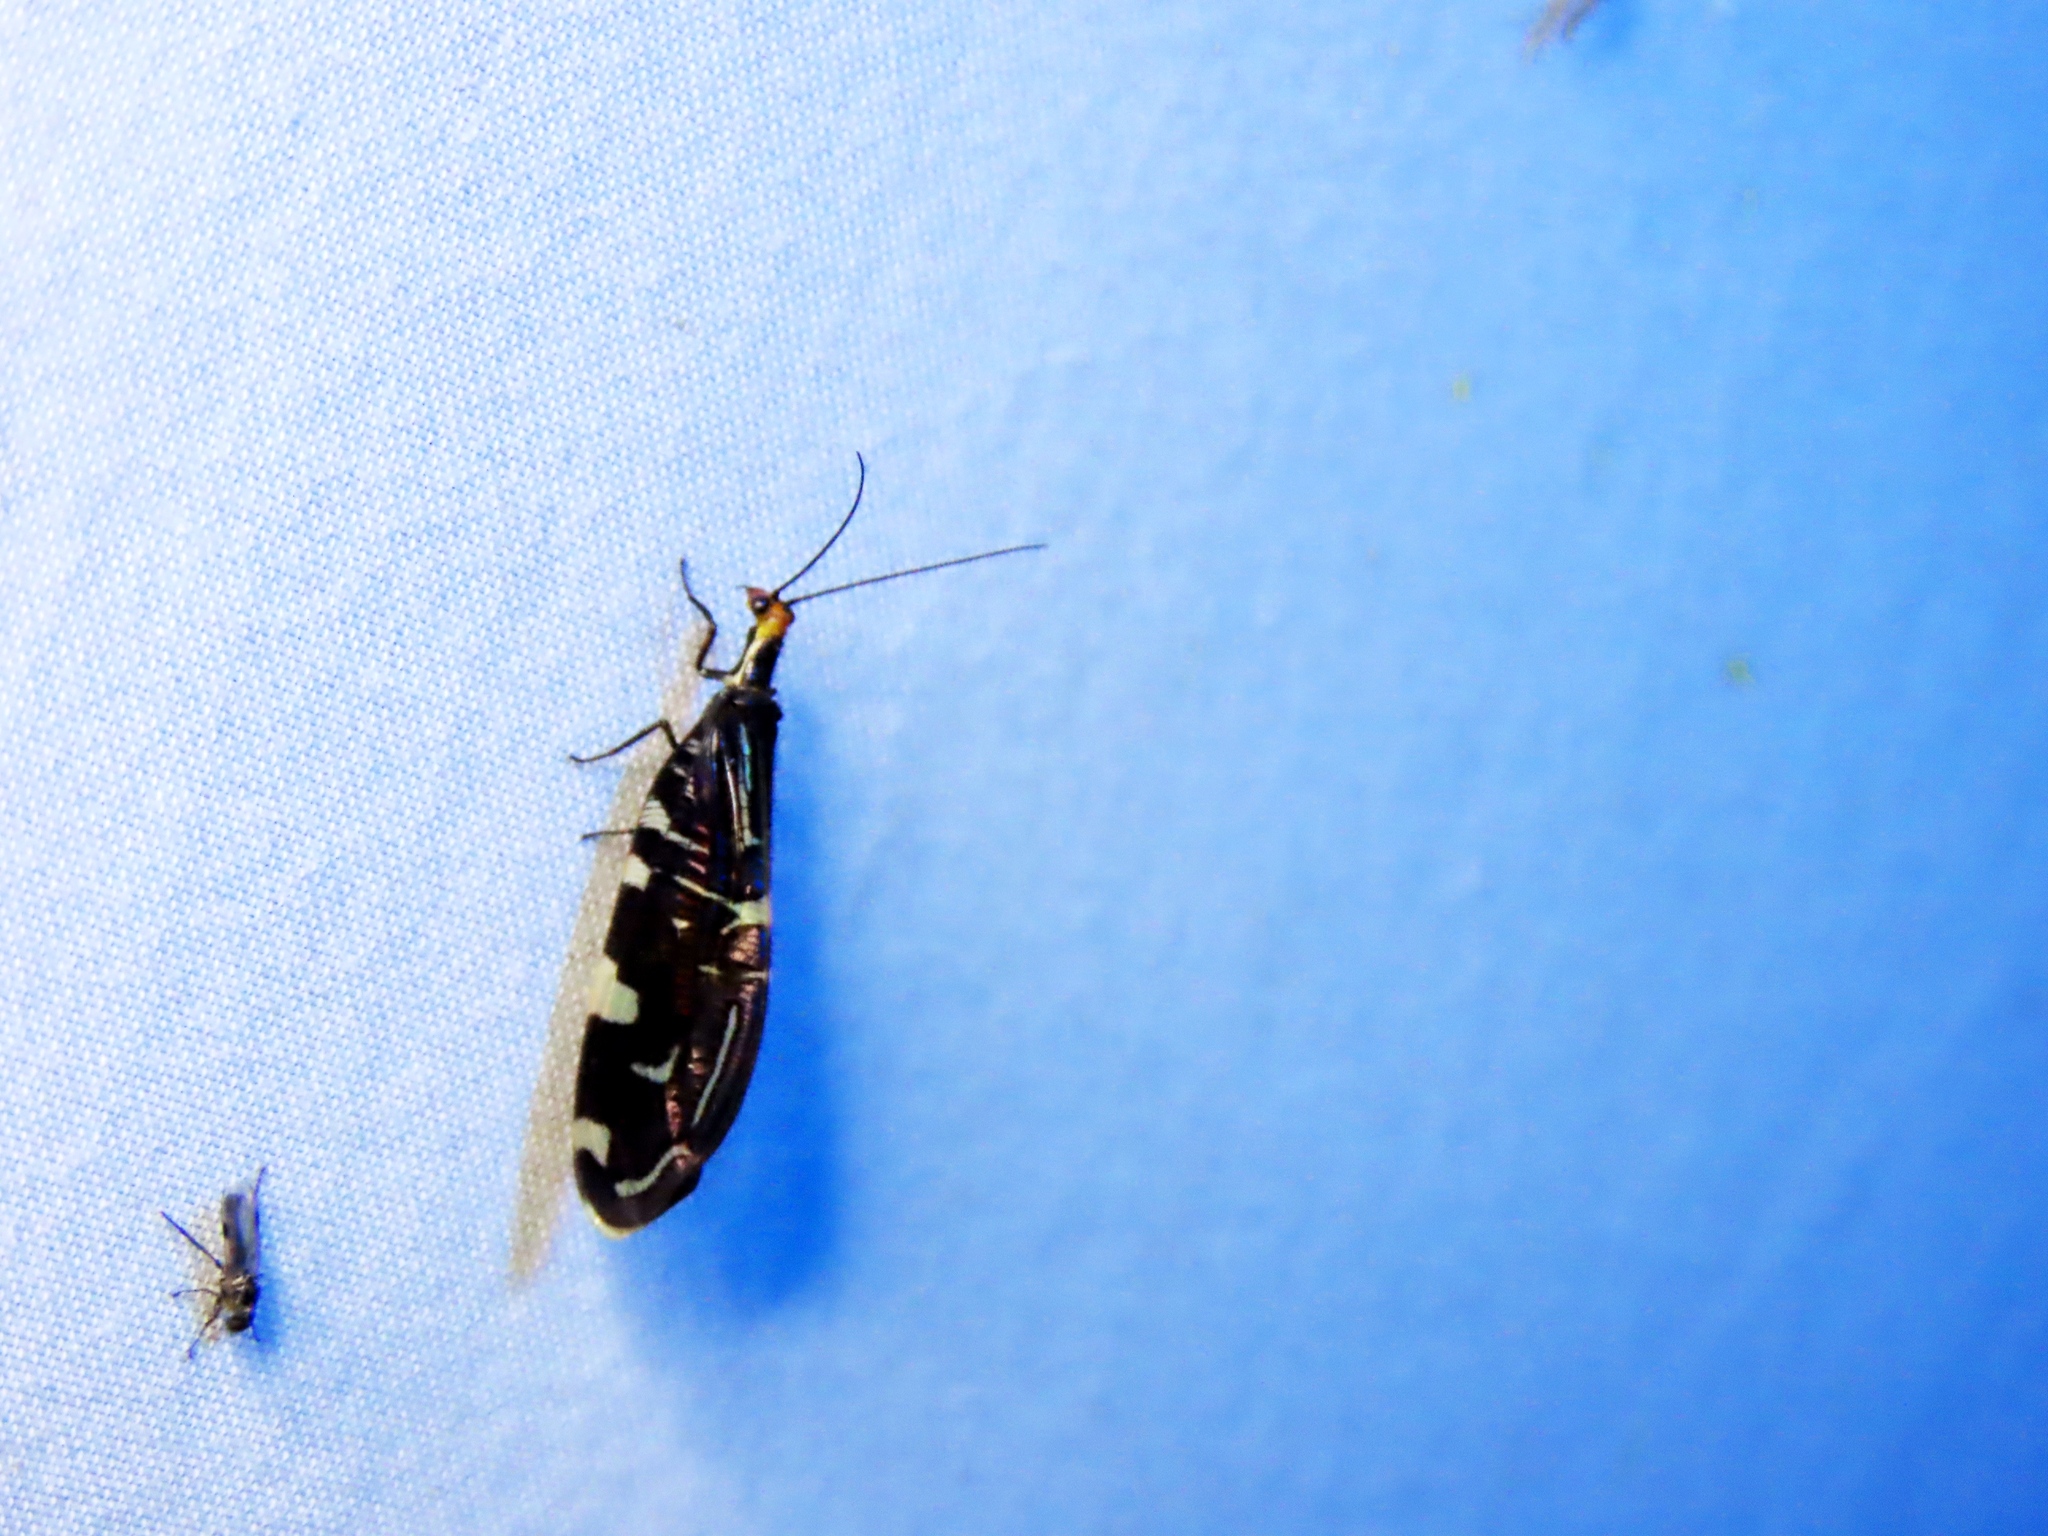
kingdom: Animalia
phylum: Arthropoda
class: Insecta
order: Neuroptera
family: Osmylidae
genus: Porismus
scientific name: Porismus strigatus
